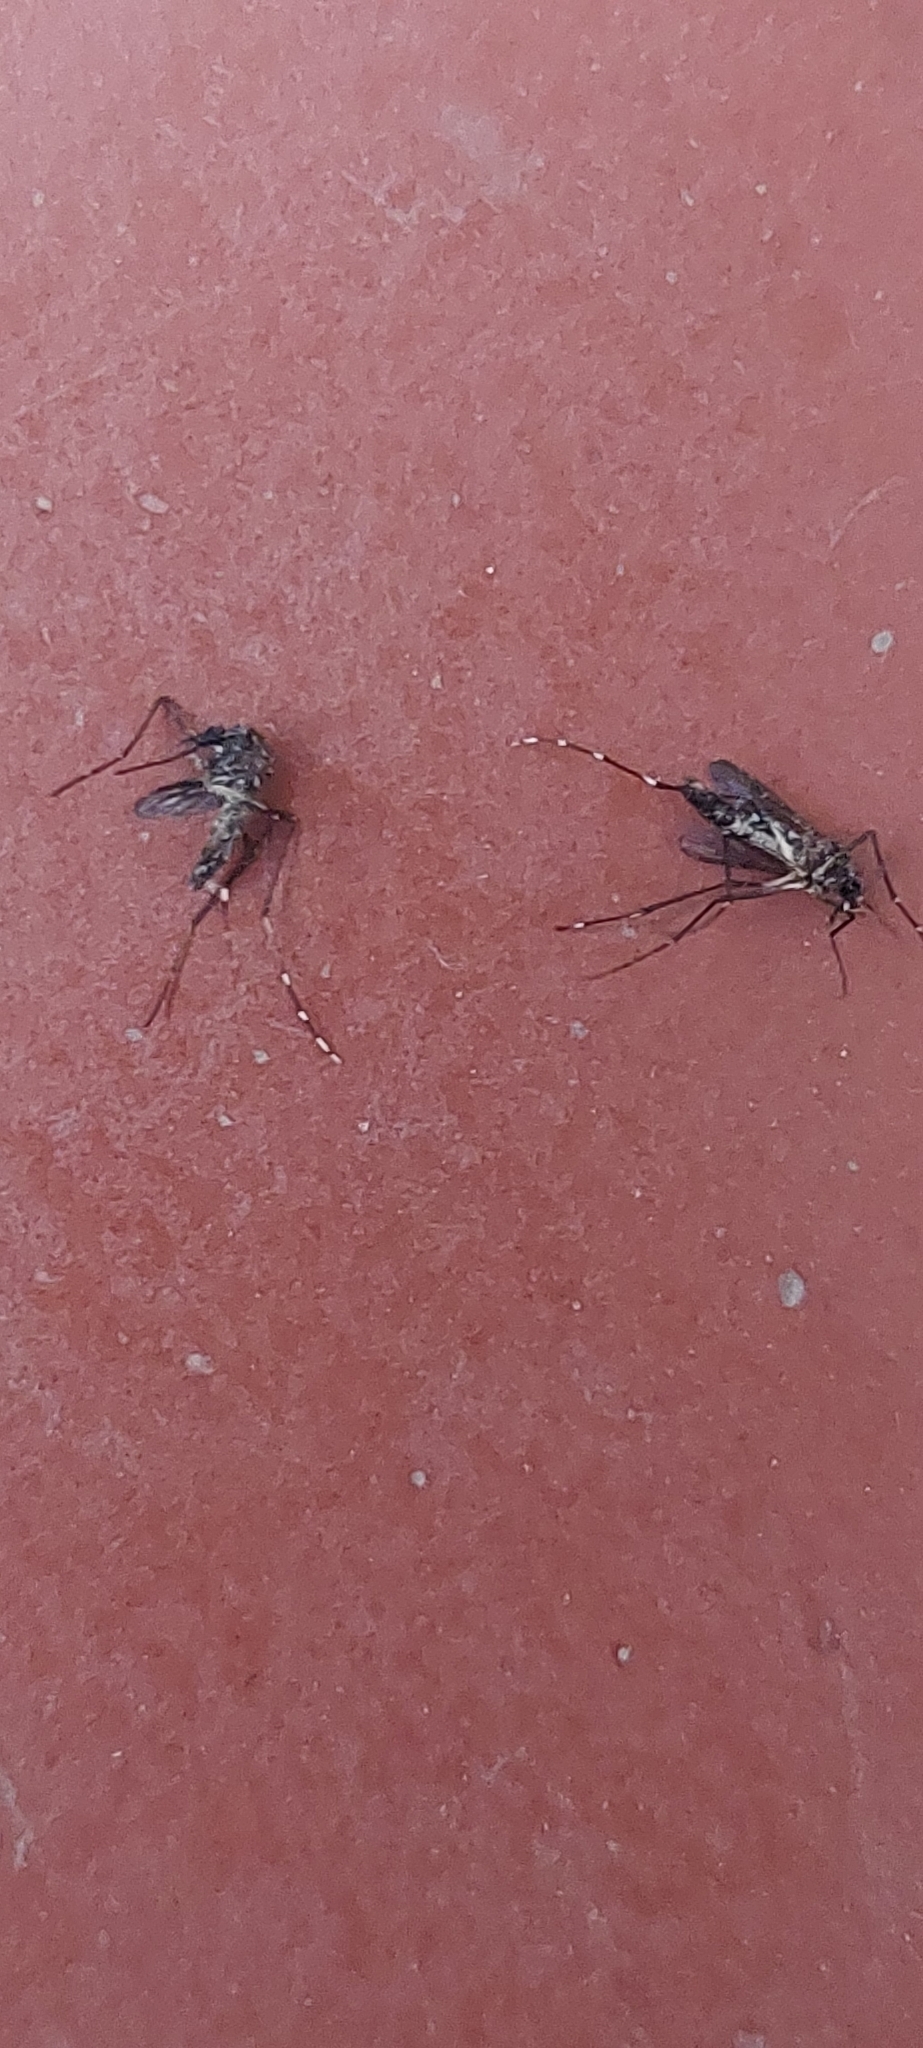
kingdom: Animalia
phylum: Arthropoda
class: Insecta
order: Diptera
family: Culicidae
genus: Aedes
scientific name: Aedes aegypti
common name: Yellow fever mosquito
